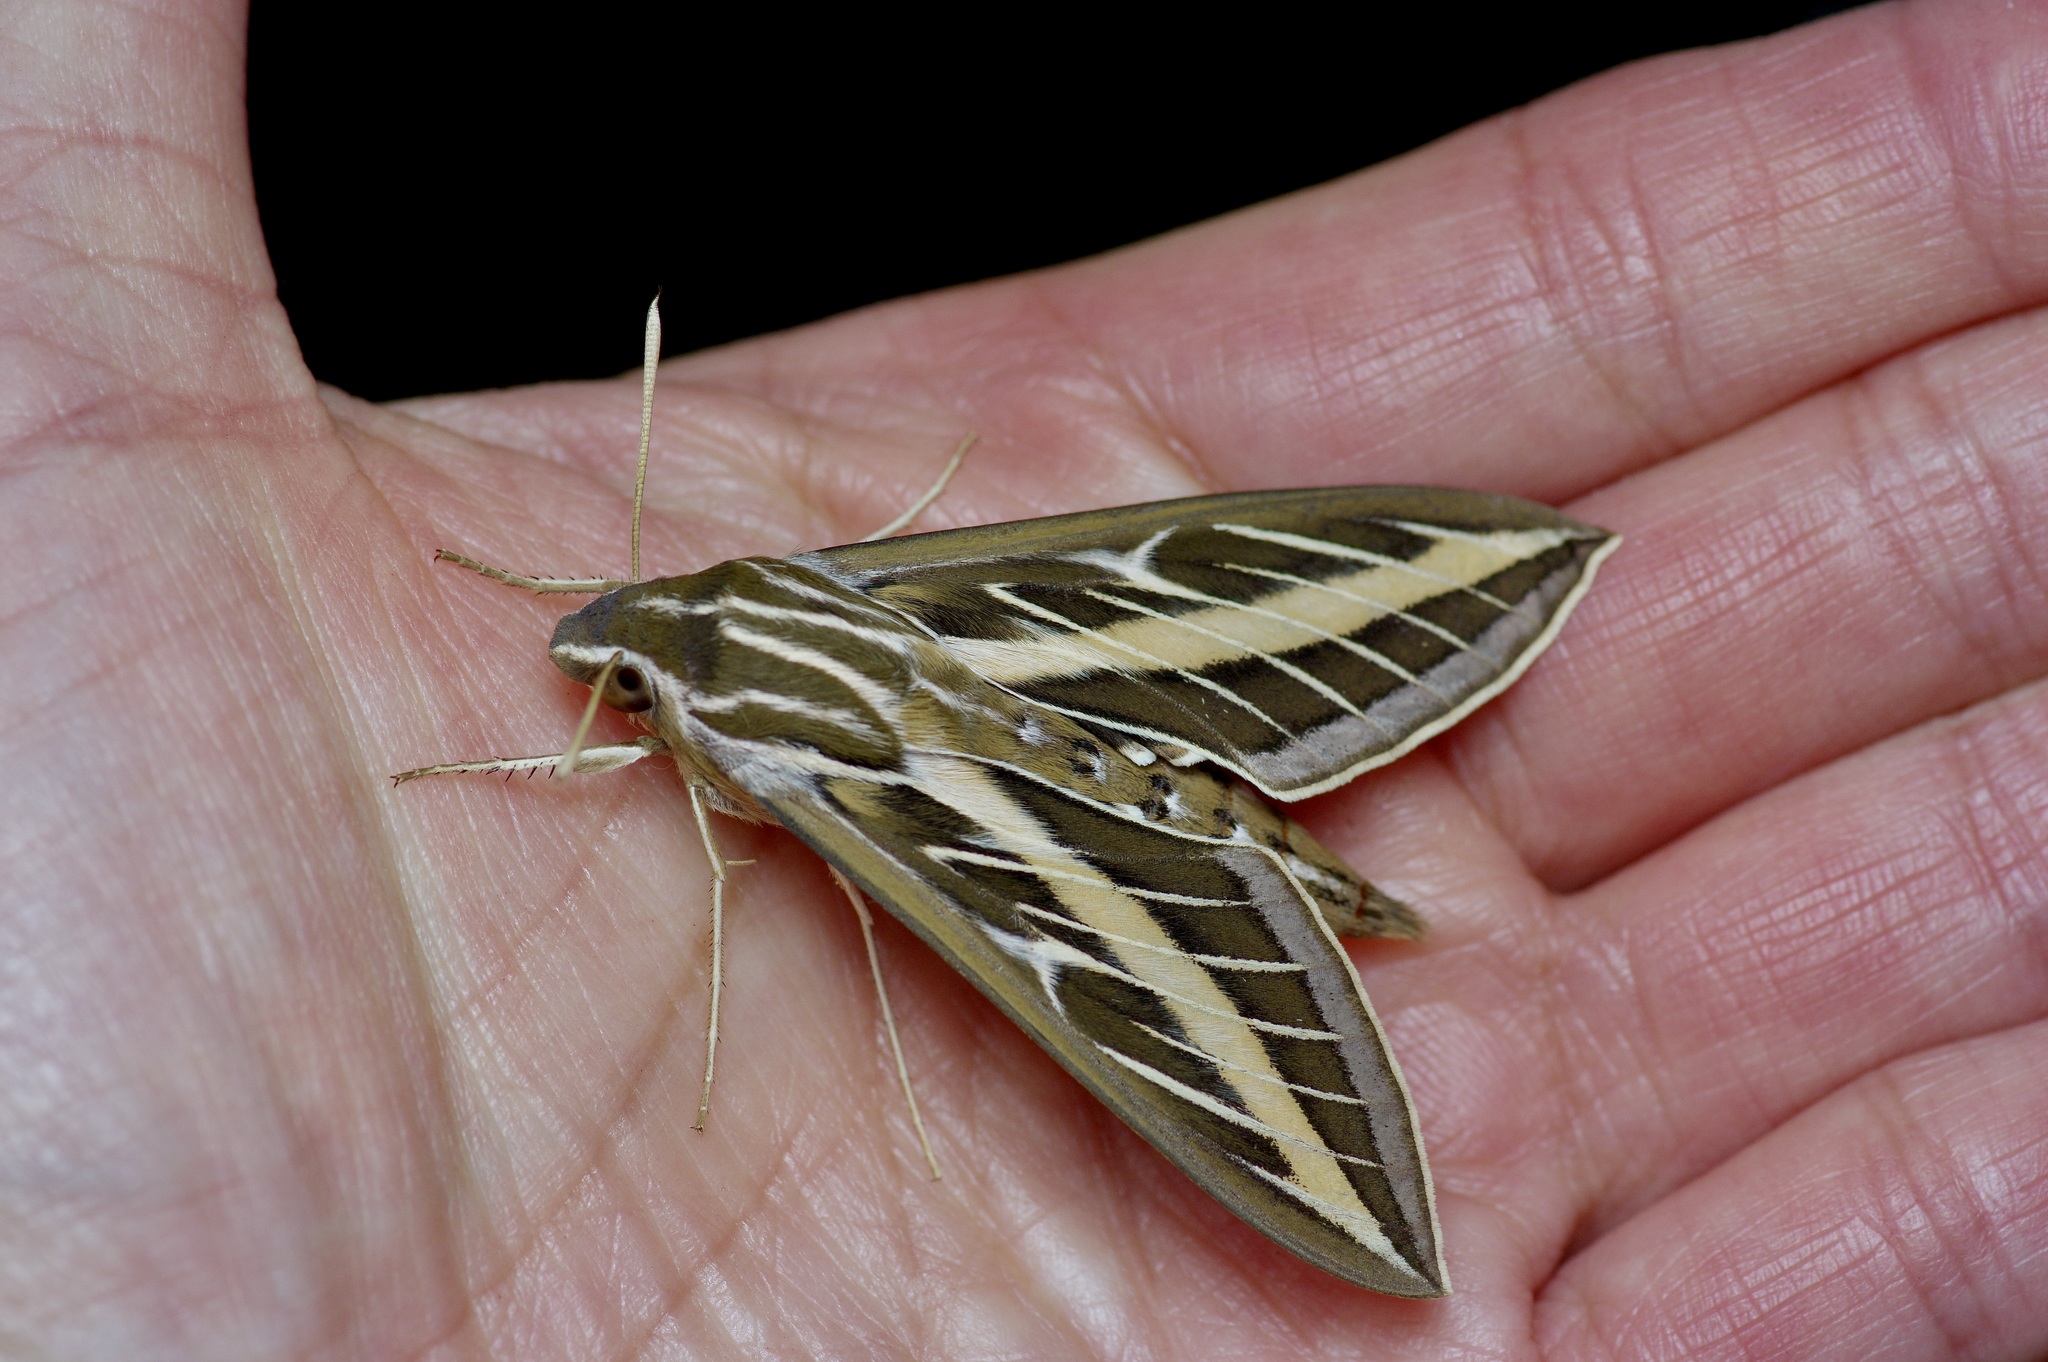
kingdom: Animalia
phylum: Arthropoda
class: Insecta
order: Lepidoptera
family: Sphingidae
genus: Hyles
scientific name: Hyles lineata
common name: White-lined sphinx
